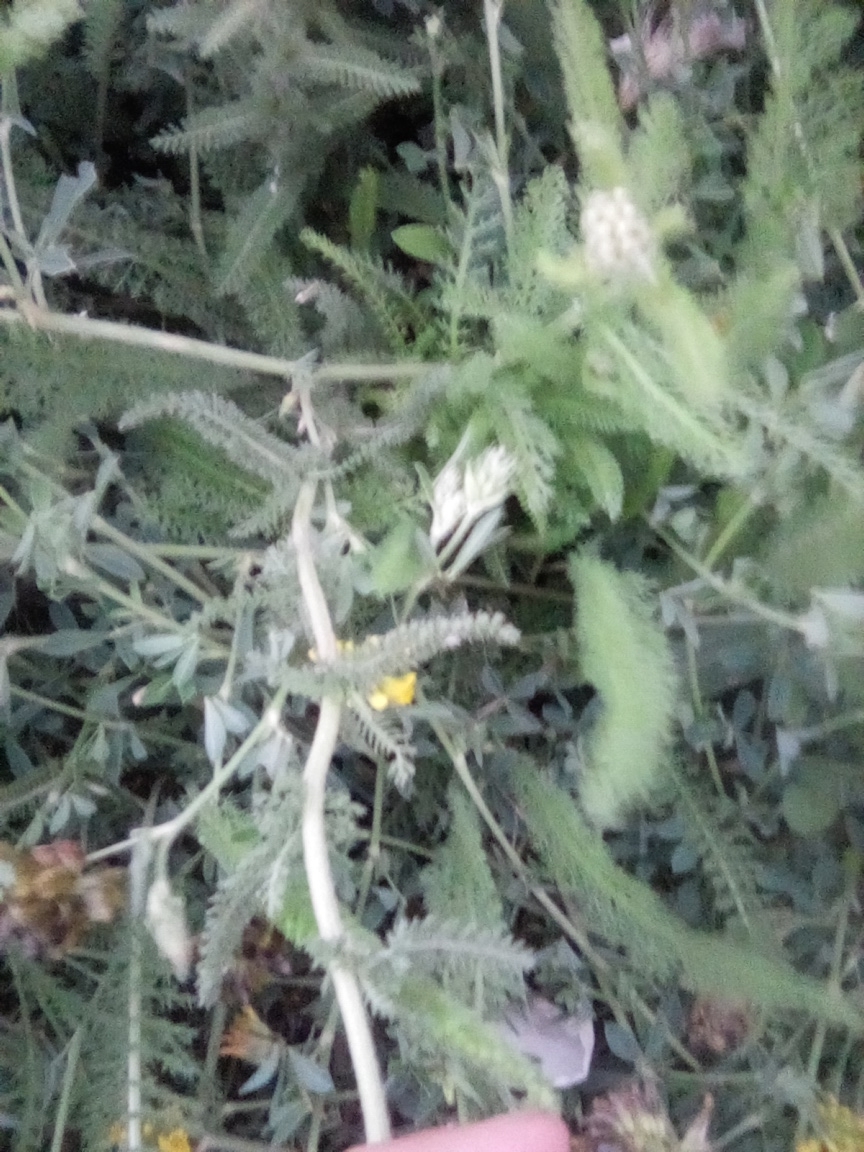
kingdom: Plantae
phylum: Tracheophyta
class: Magnoliopsida
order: Asterales
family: Asteraceae
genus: Achillea
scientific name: Achillea setacea
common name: Bristly yarrow
